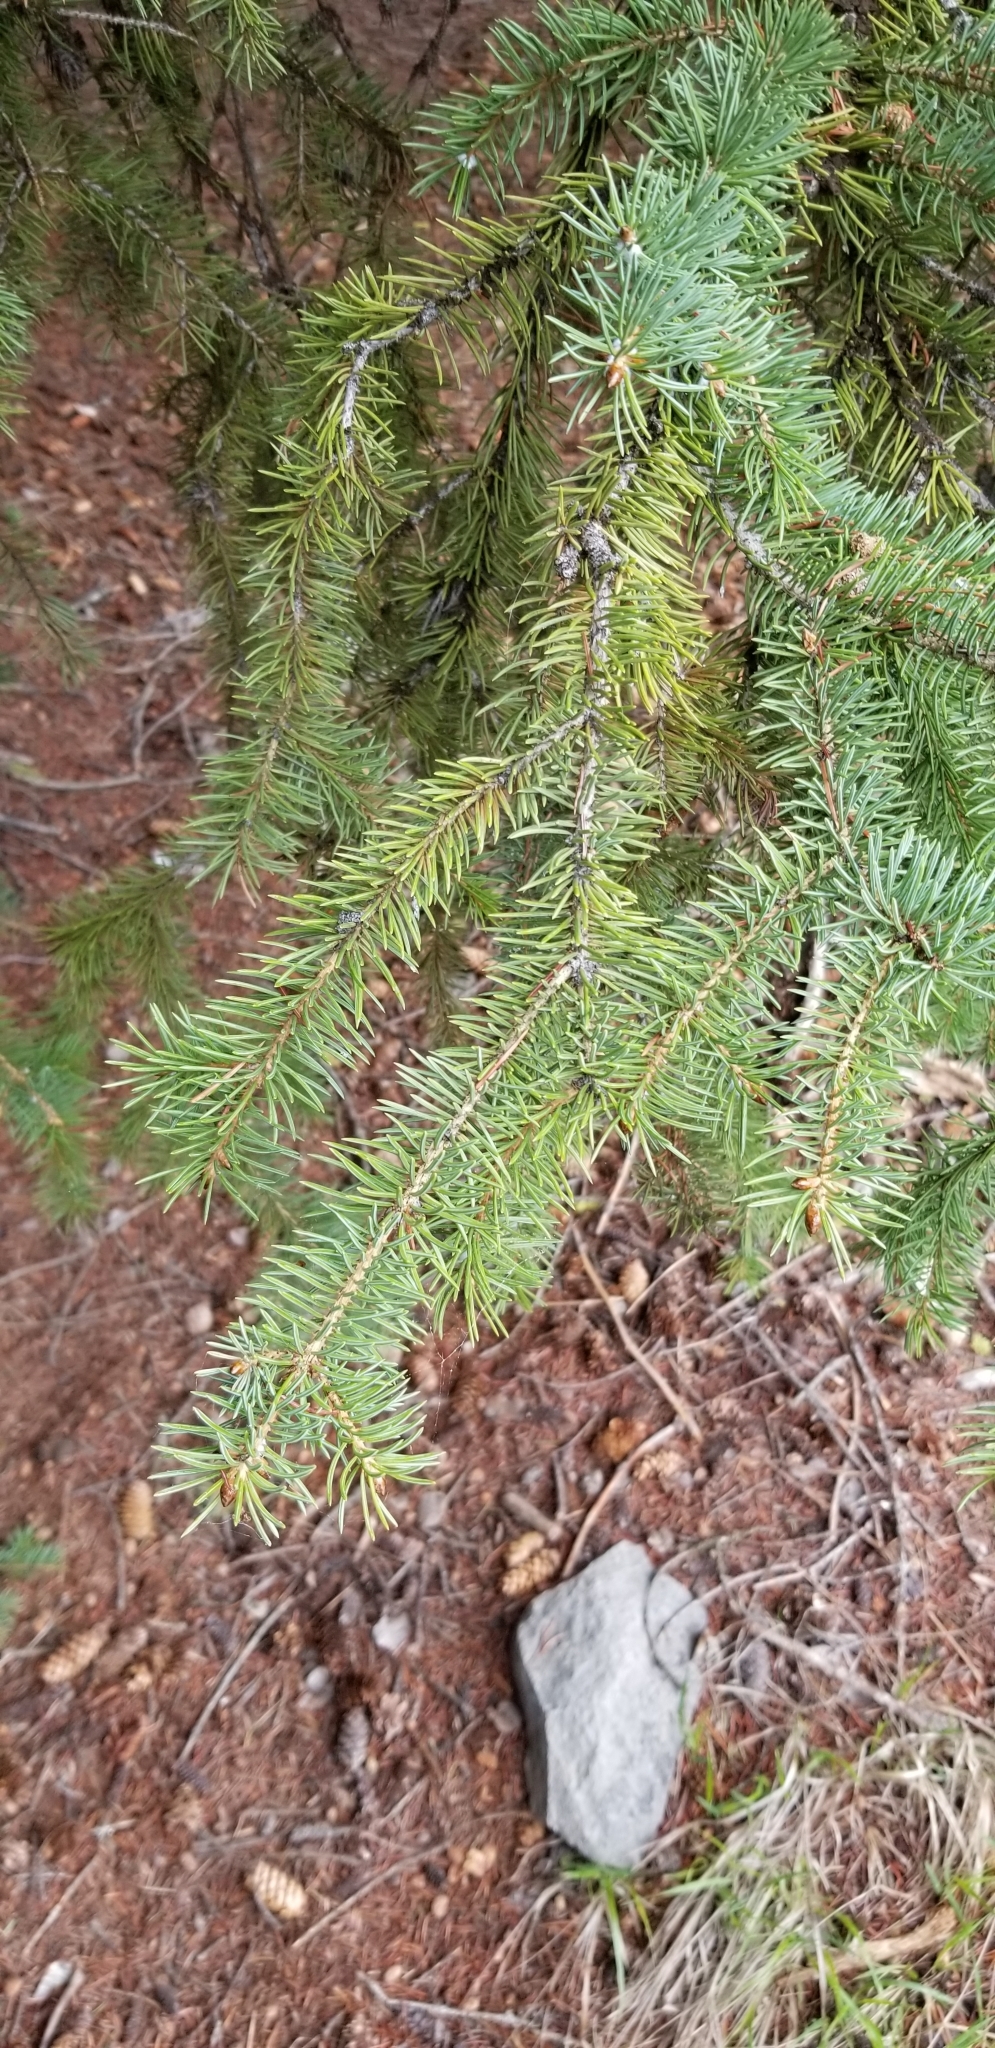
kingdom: Plantae
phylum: Tracheophyta
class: Pinopsida
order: Pinales
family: Pinaceae
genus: Pseudotsuga
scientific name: Pseudotsuga menziesii
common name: Douglas fir
